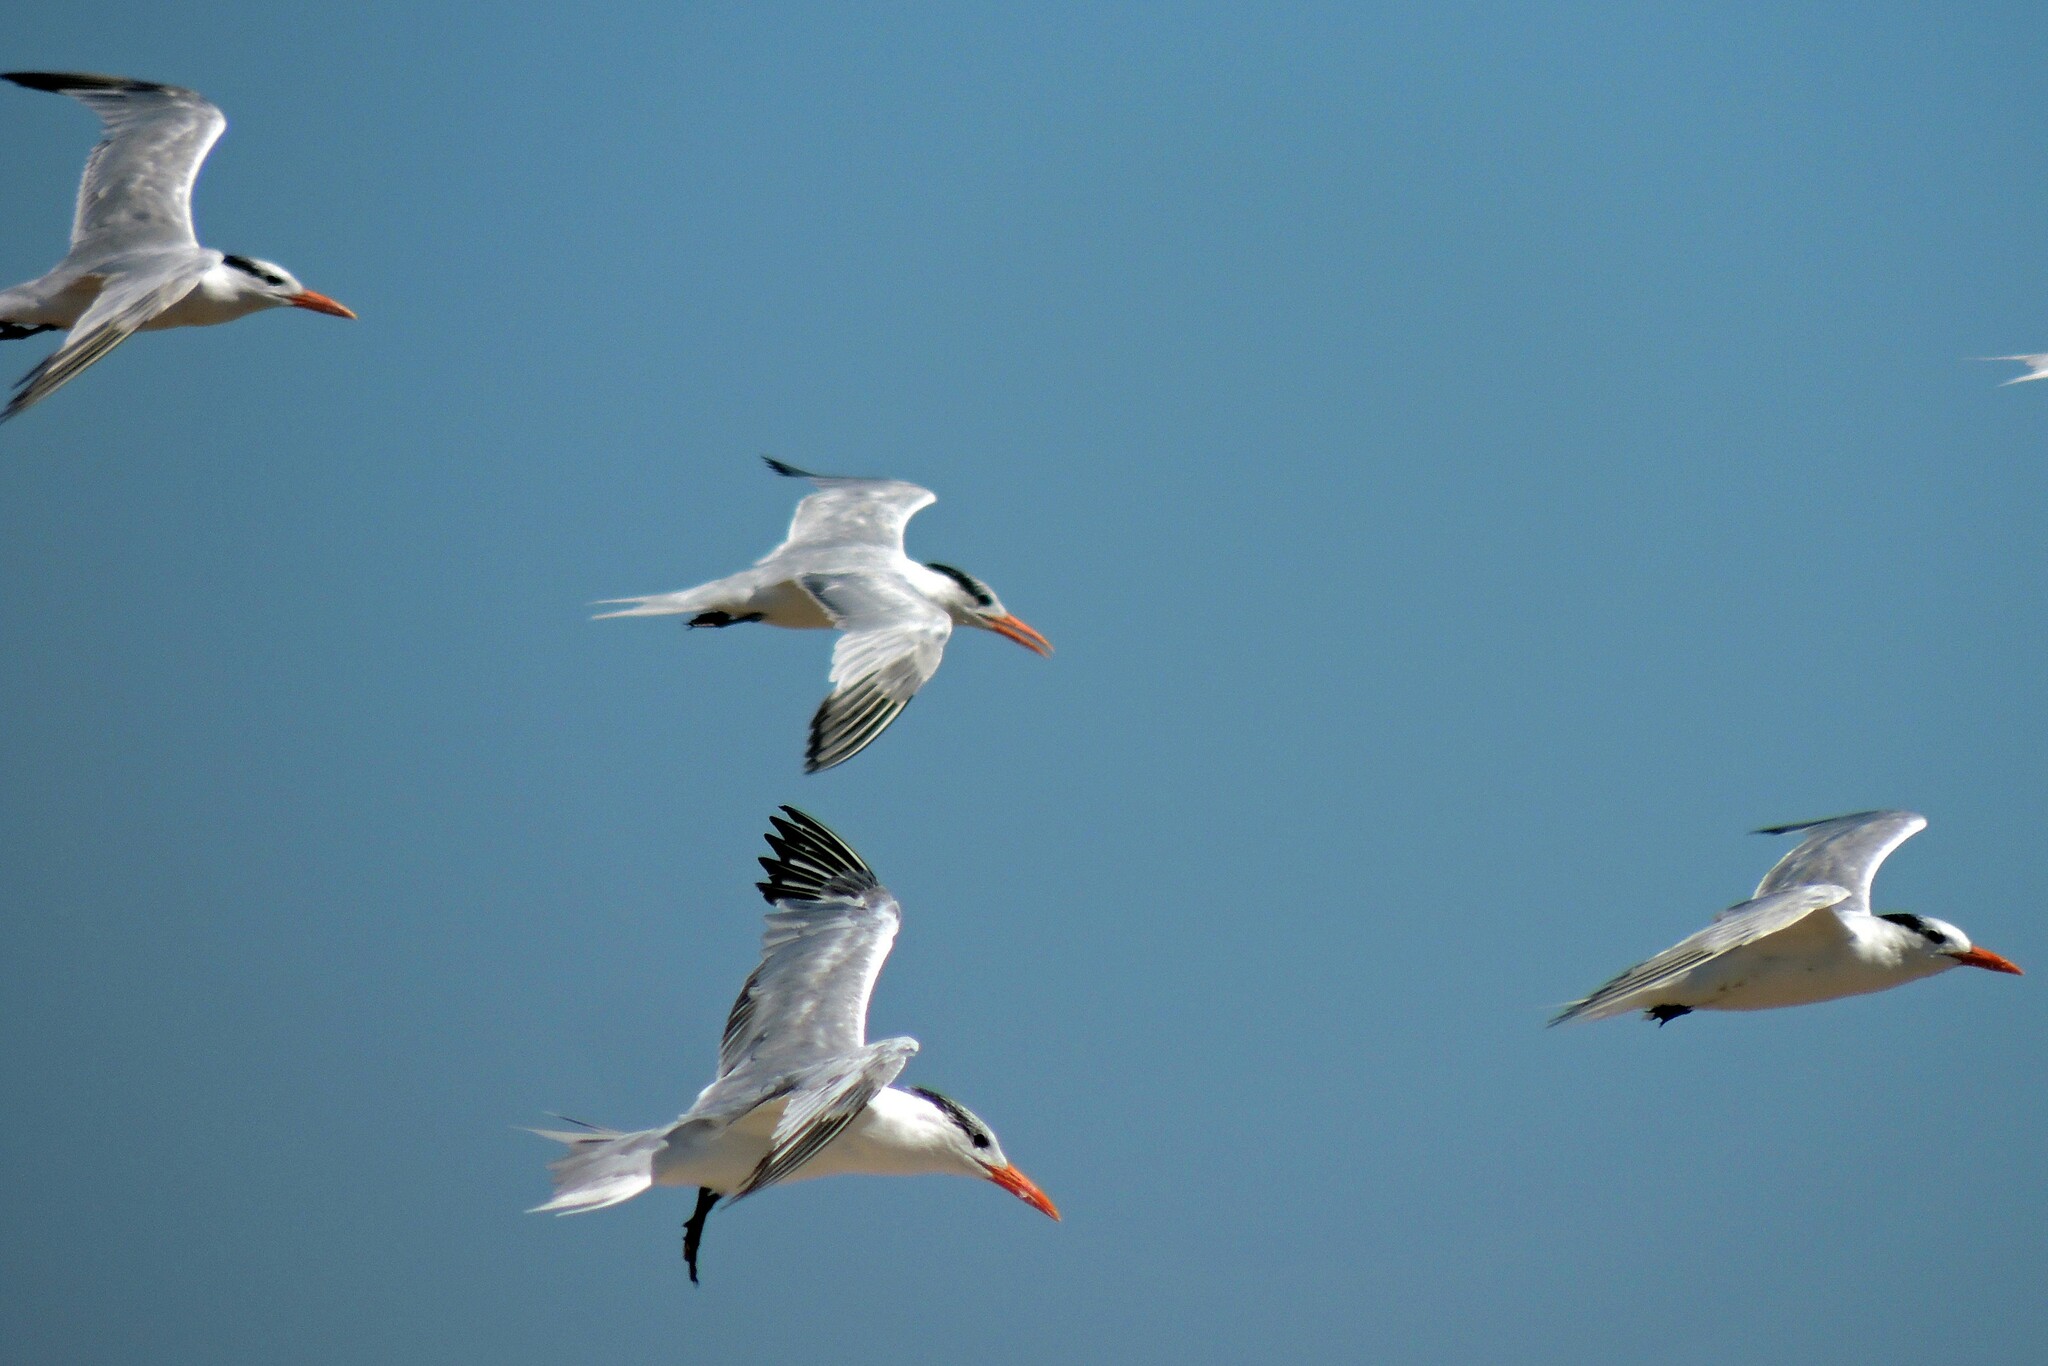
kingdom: Animalia
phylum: Chordata
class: Aves
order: Charadriiformes
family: Laridae
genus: Thalasseus
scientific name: Thalasseus maximus
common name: Royal tern
